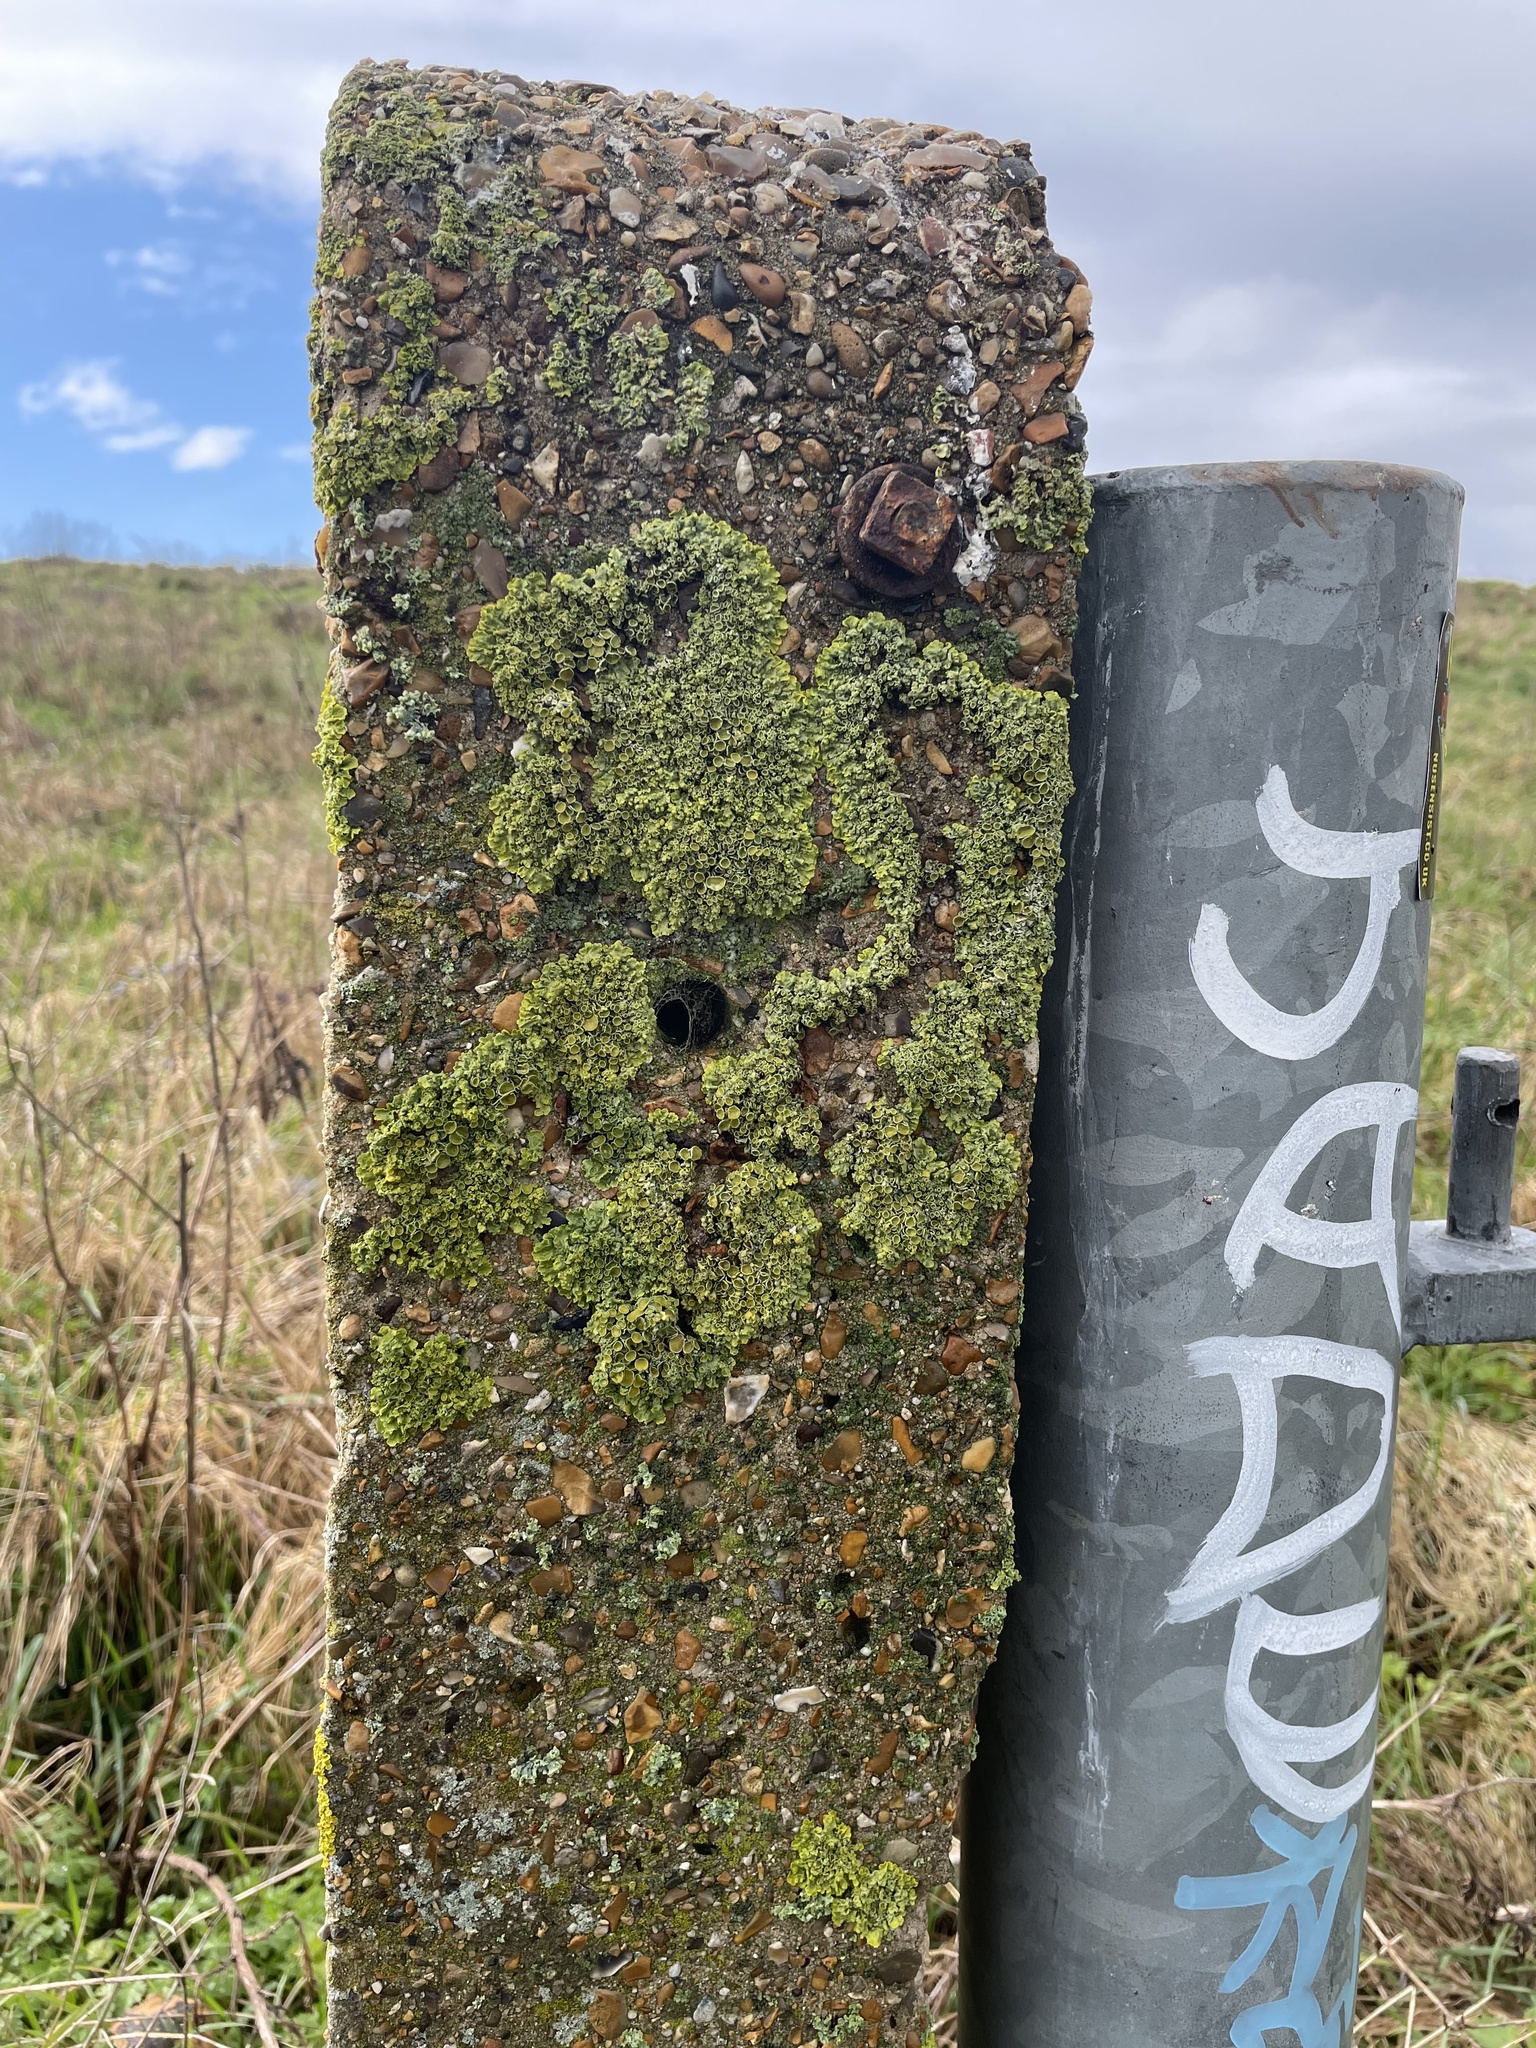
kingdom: Fungi
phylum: Ascomycota
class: Lecanoromycetes
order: Teloschistales
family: Teloschistaceae
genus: Xanthoria
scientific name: Xanthoria parietina
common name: Common orange lichen
